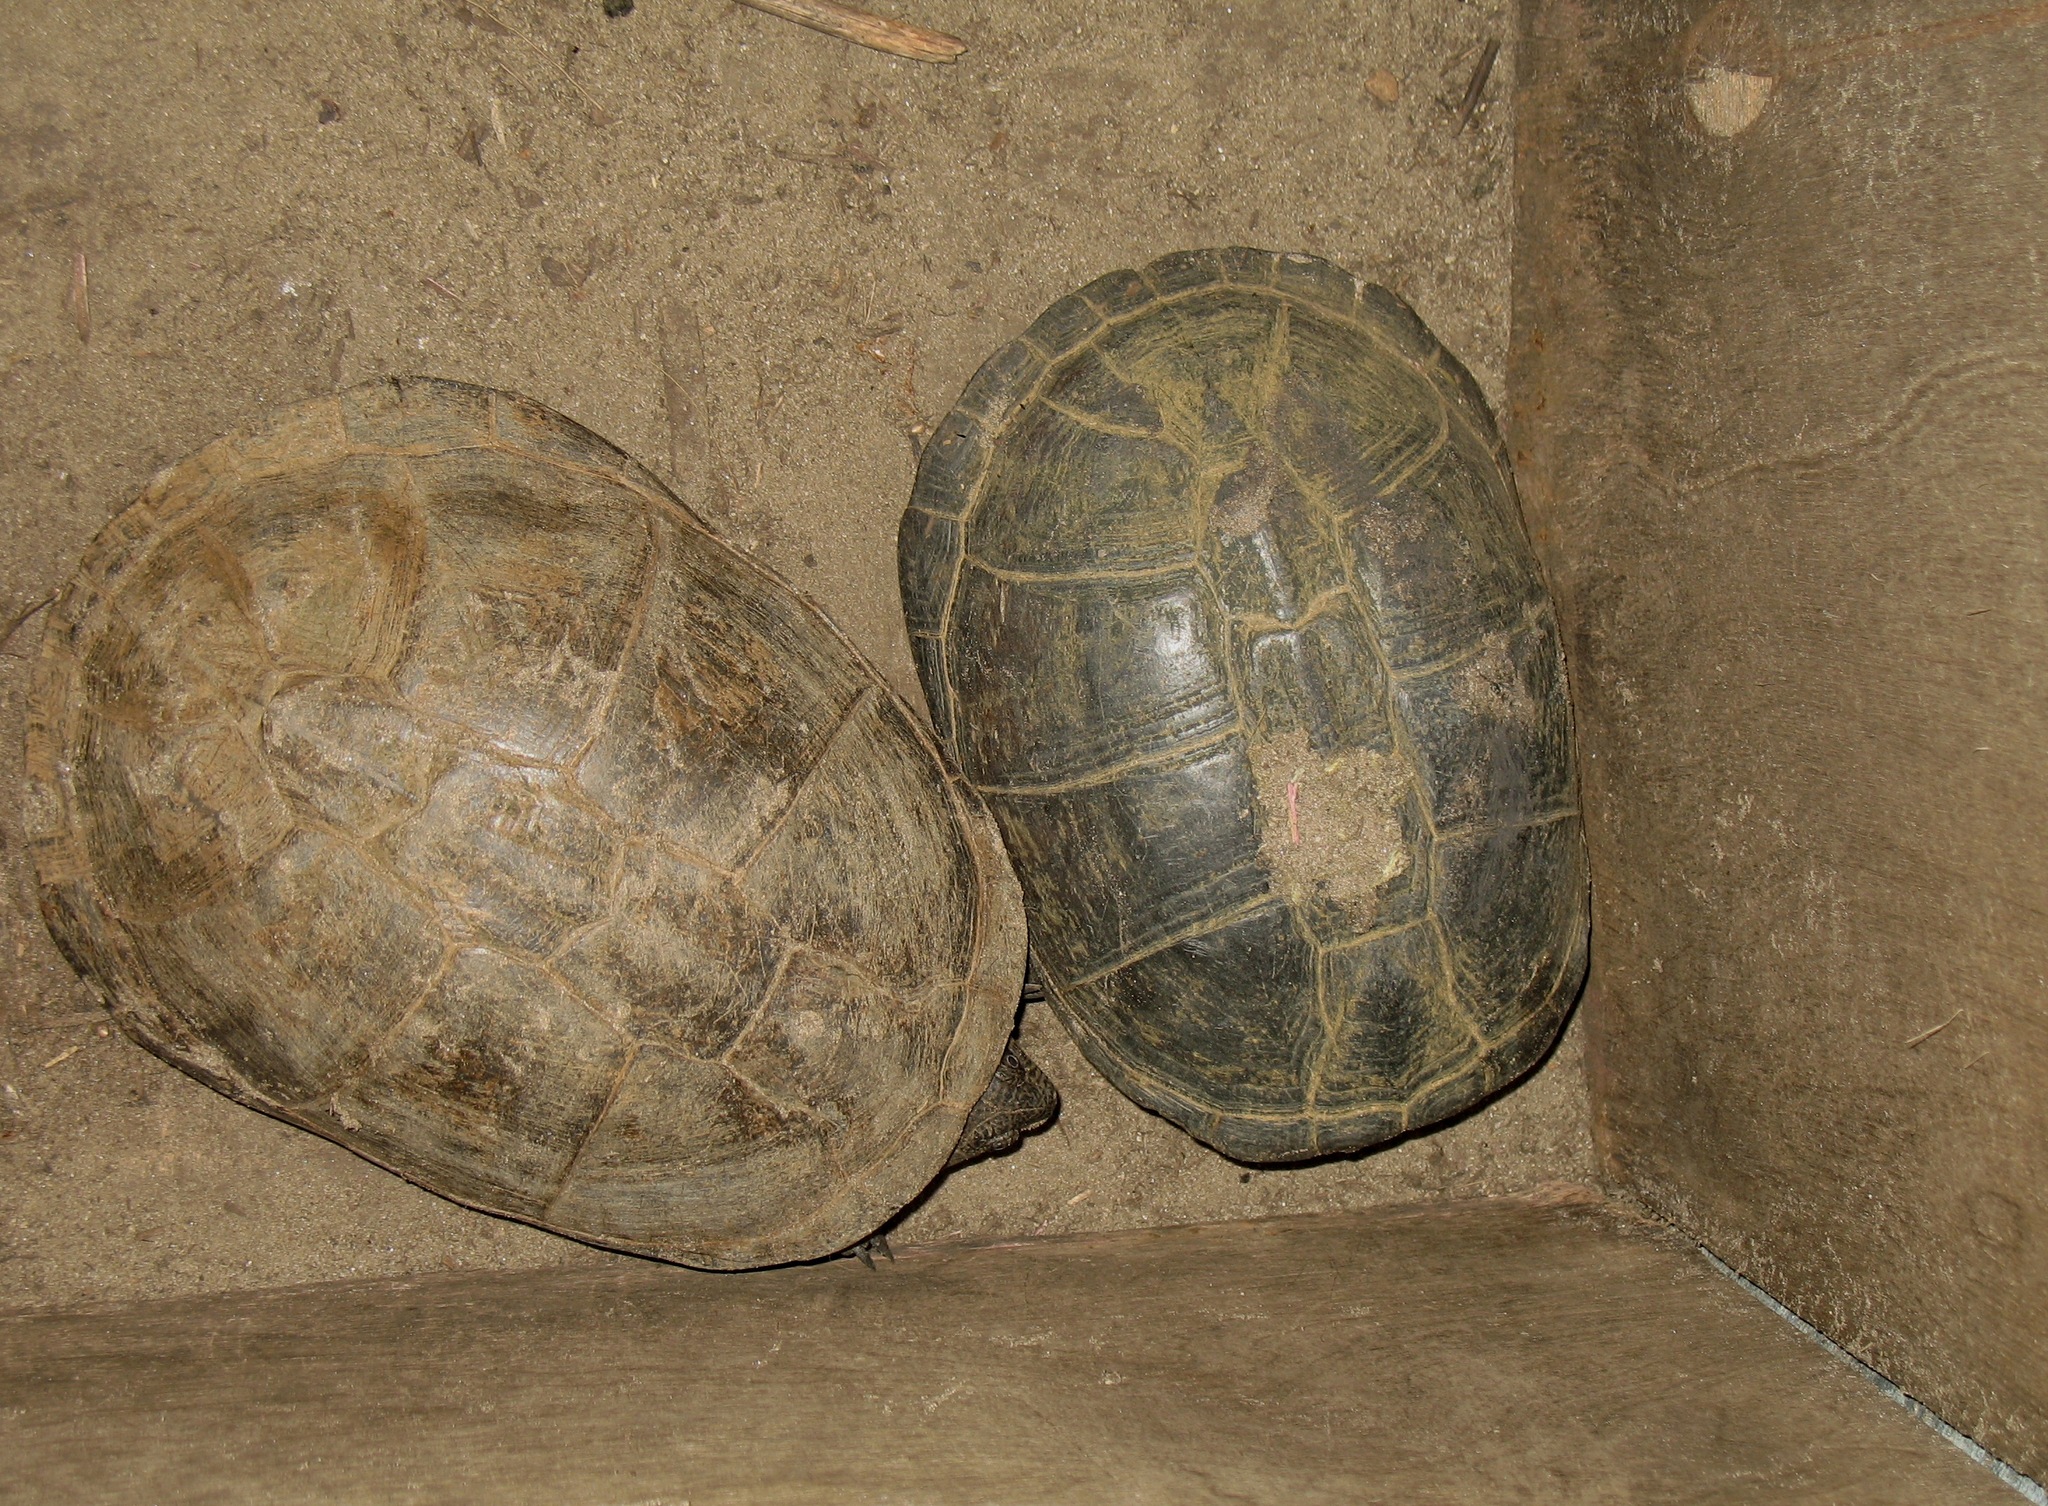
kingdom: Animalia
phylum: Chordata
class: Testudines
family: Pelomedusidae
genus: Pelusios
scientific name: Pelusios castaneus
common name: West african mud turtle
